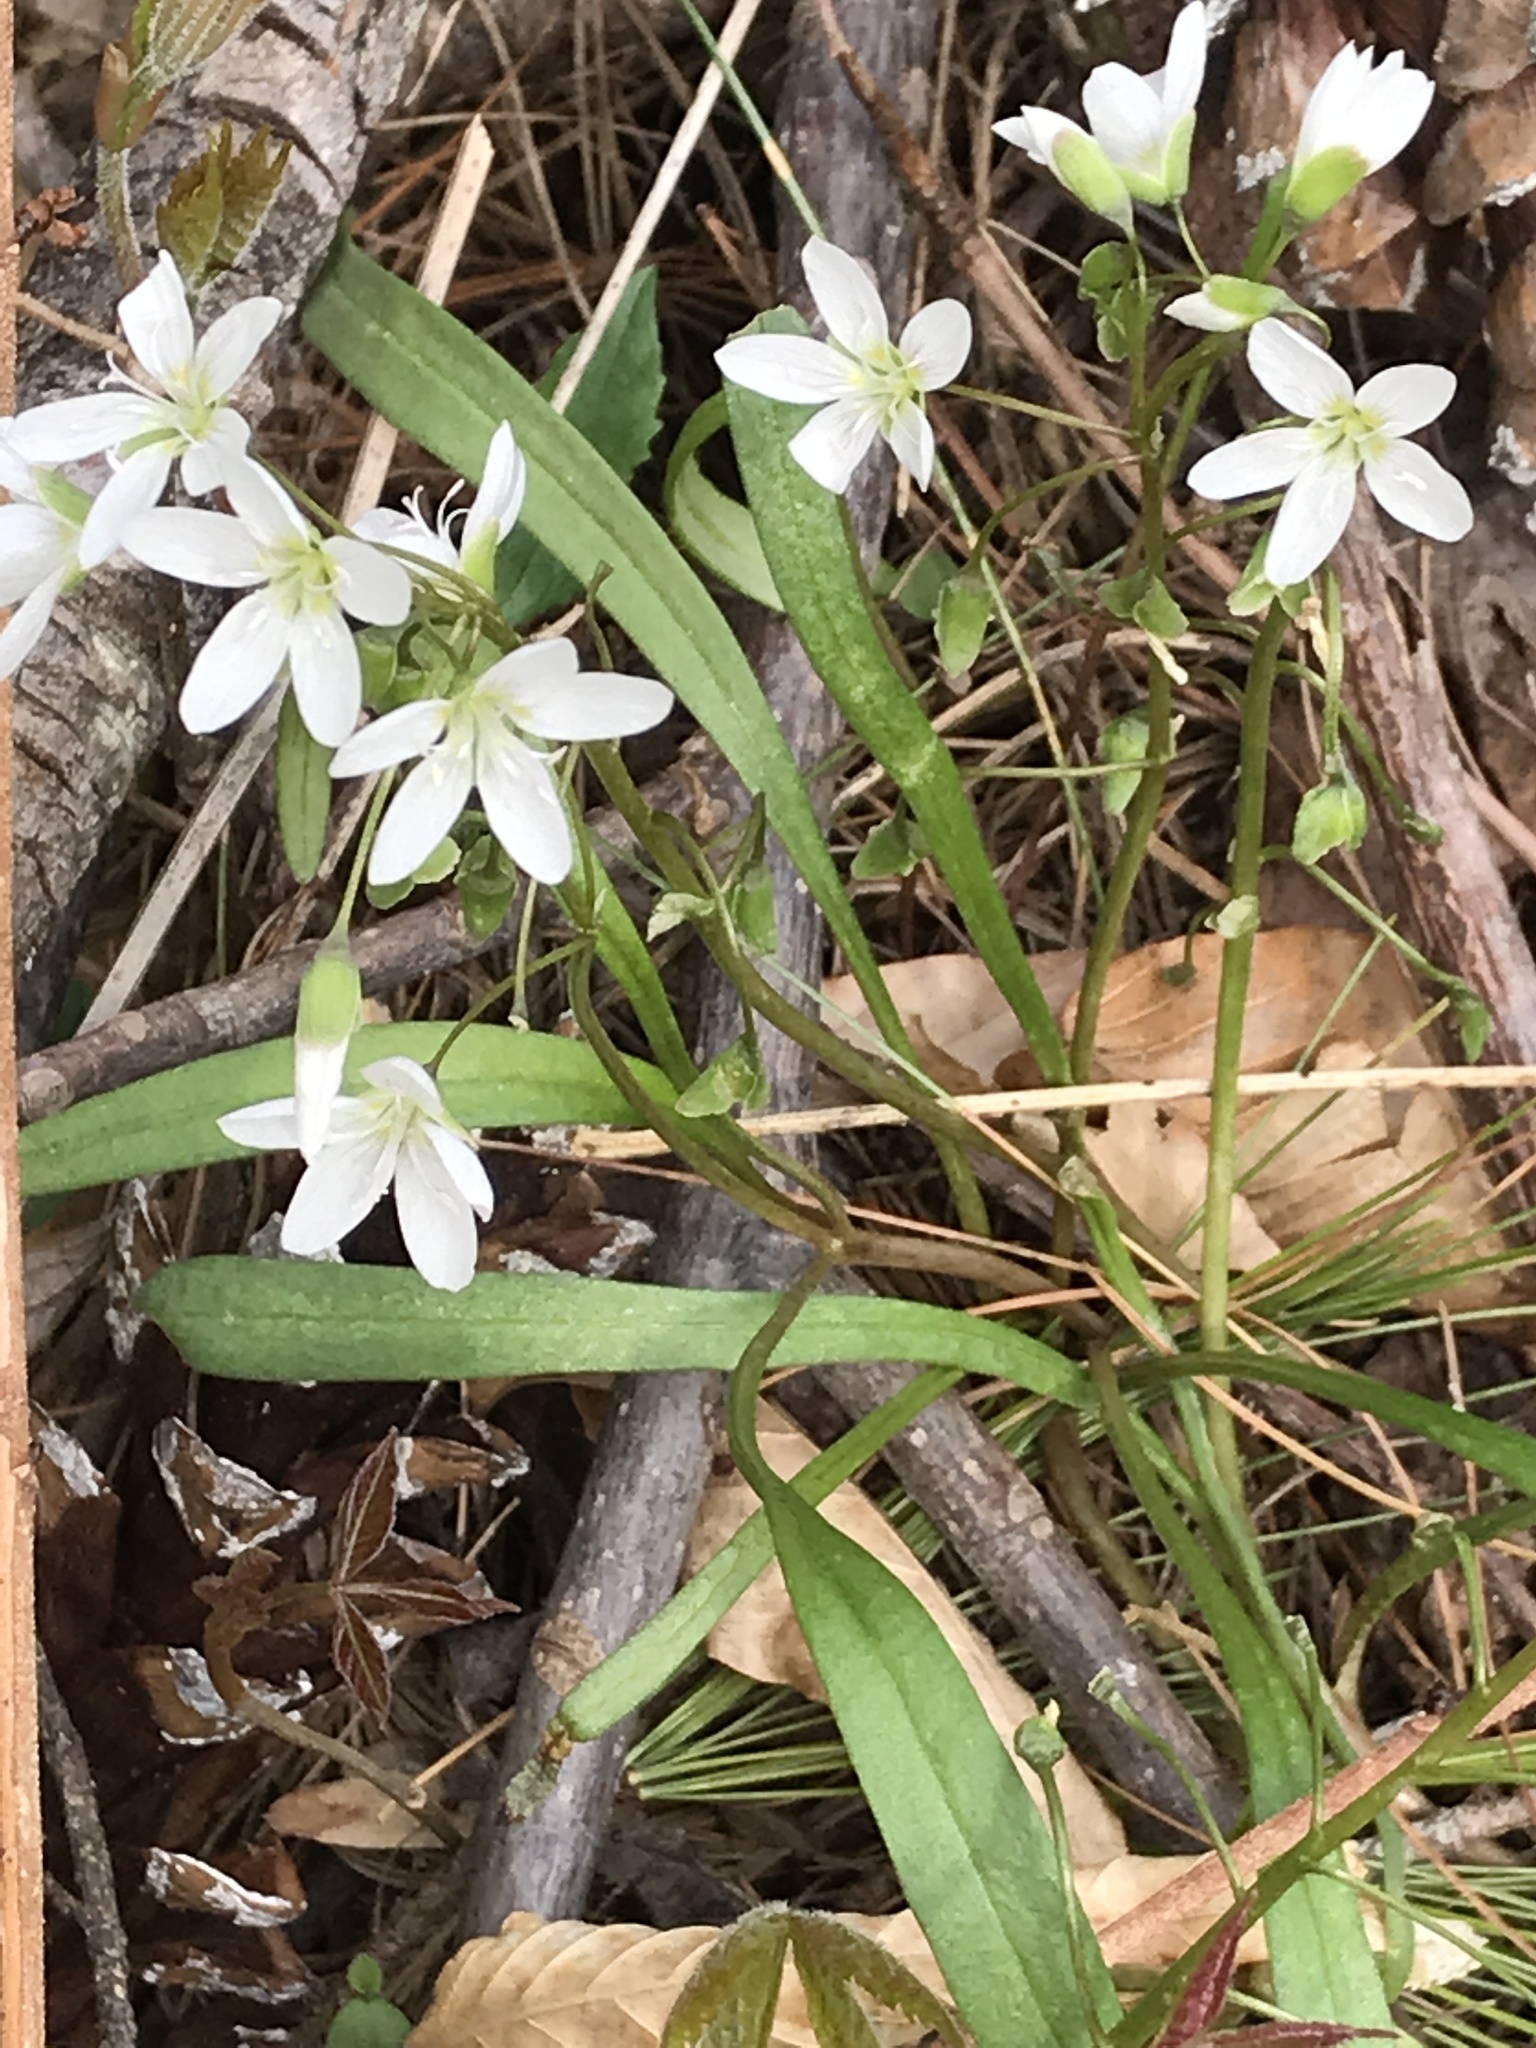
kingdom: Plantae
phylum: Tracheophyta
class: Magnoliopsida
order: Caryophyllales
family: Montiaceae
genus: Claytonia
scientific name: Claytonia virginica
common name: Virginia springbeauty
